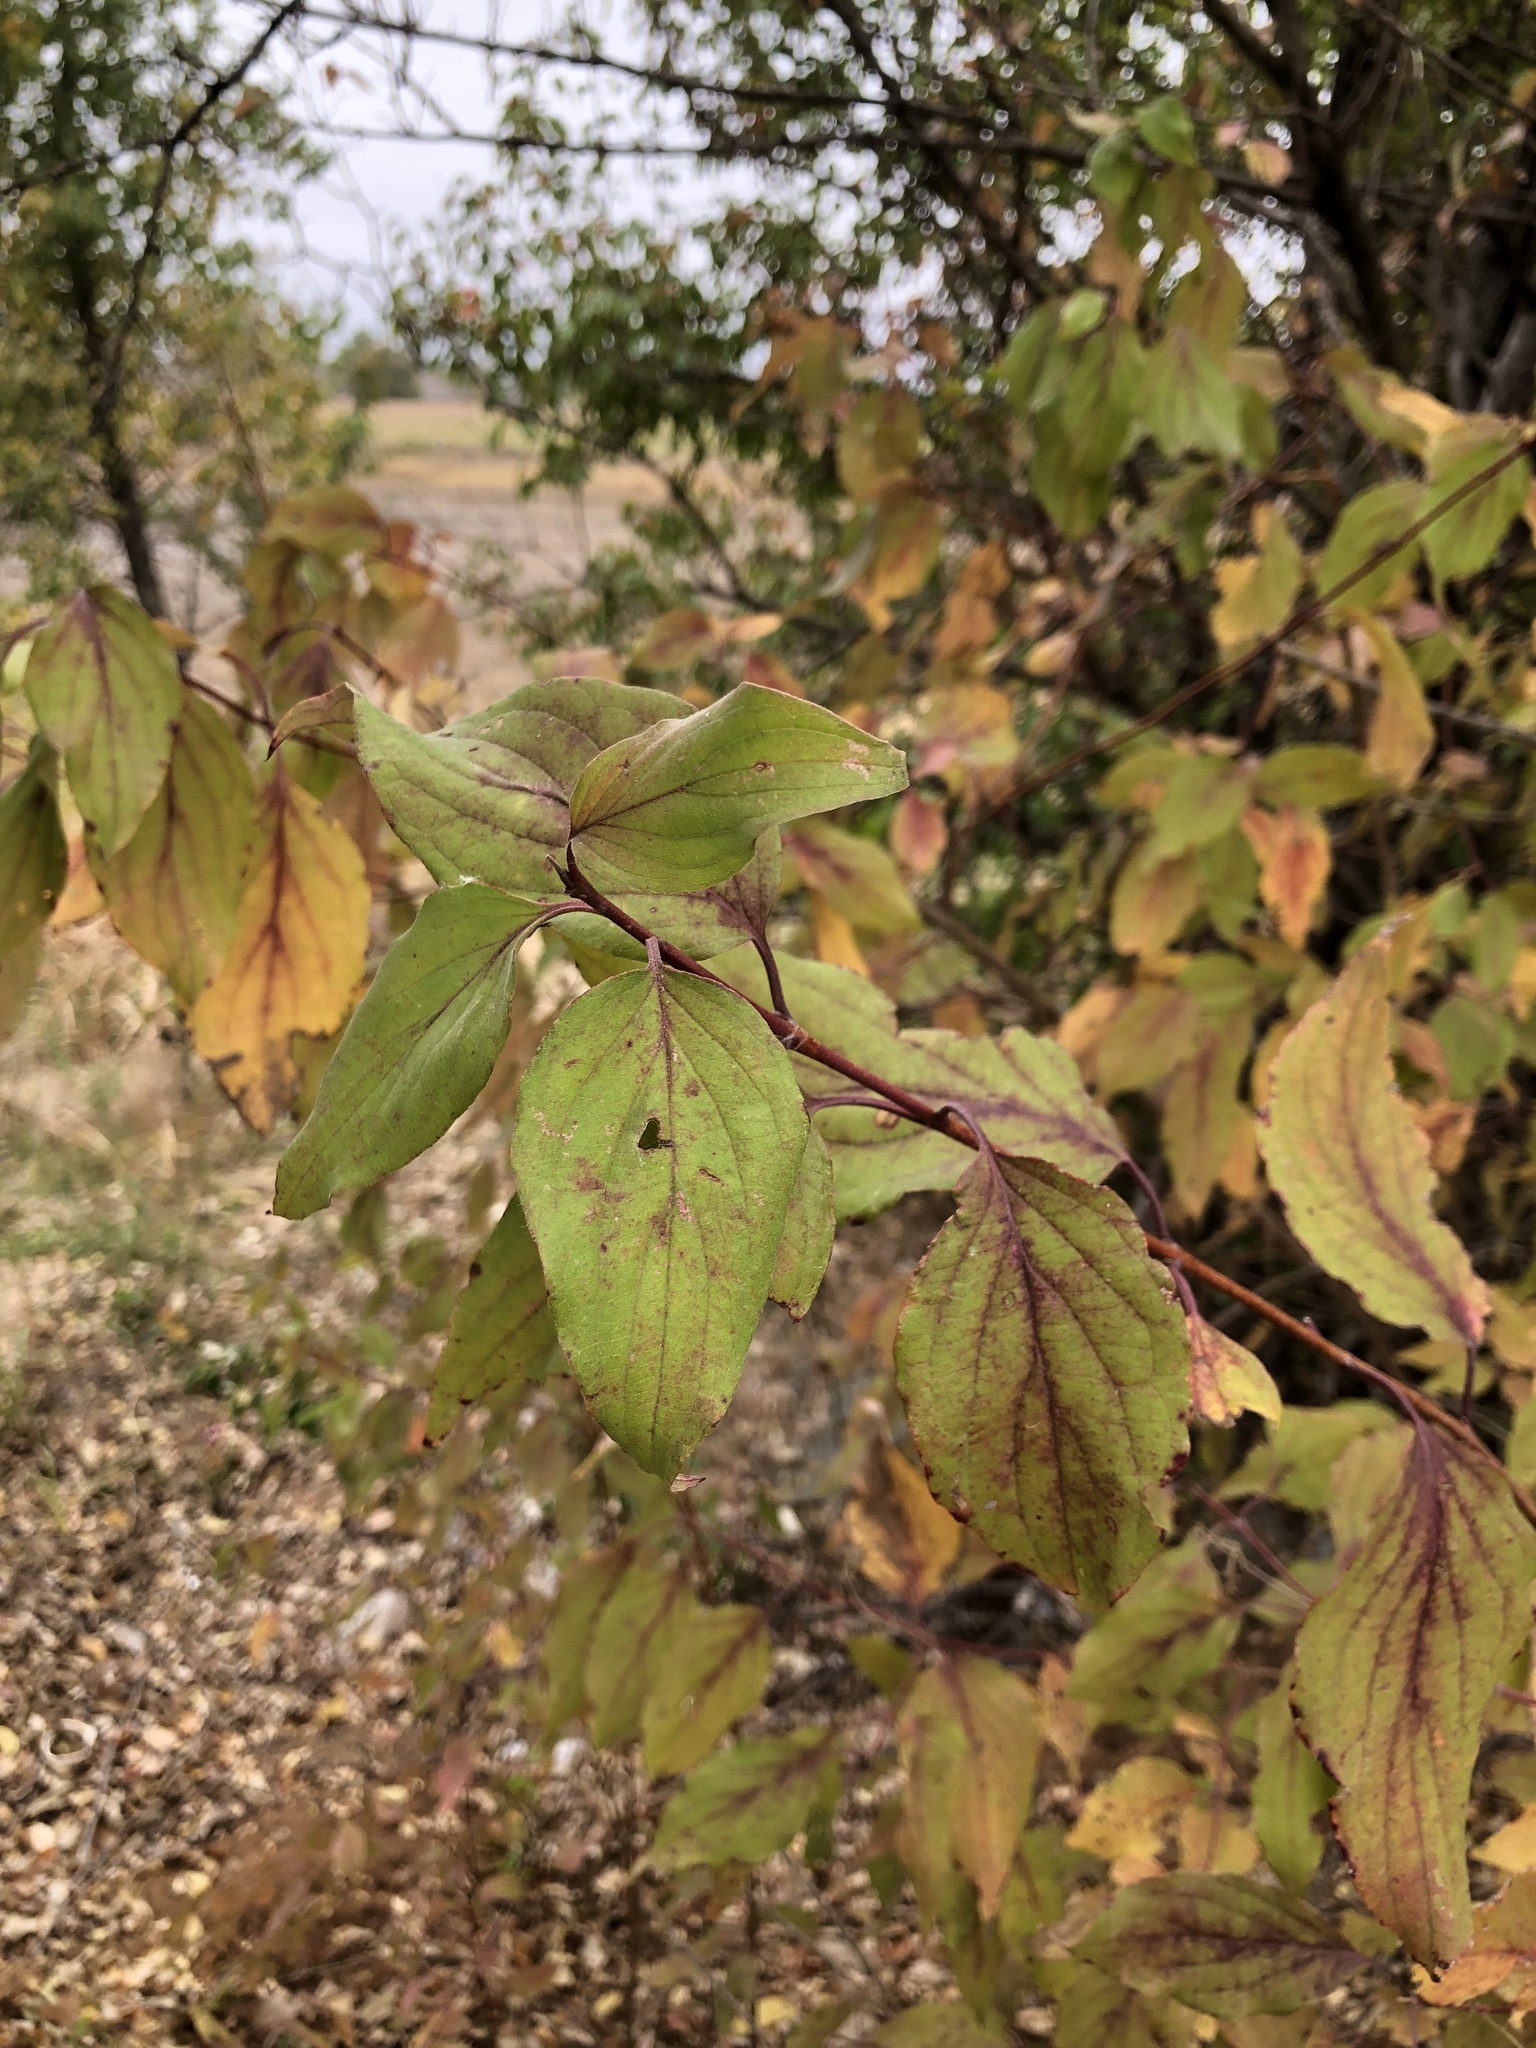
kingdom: Plantae
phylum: Tracheophyta
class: Magnoliopsida
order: Cornales
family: Cornaceae
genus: Cornus
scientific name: Cornus drummondii
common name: Rough-leaf dogwood
